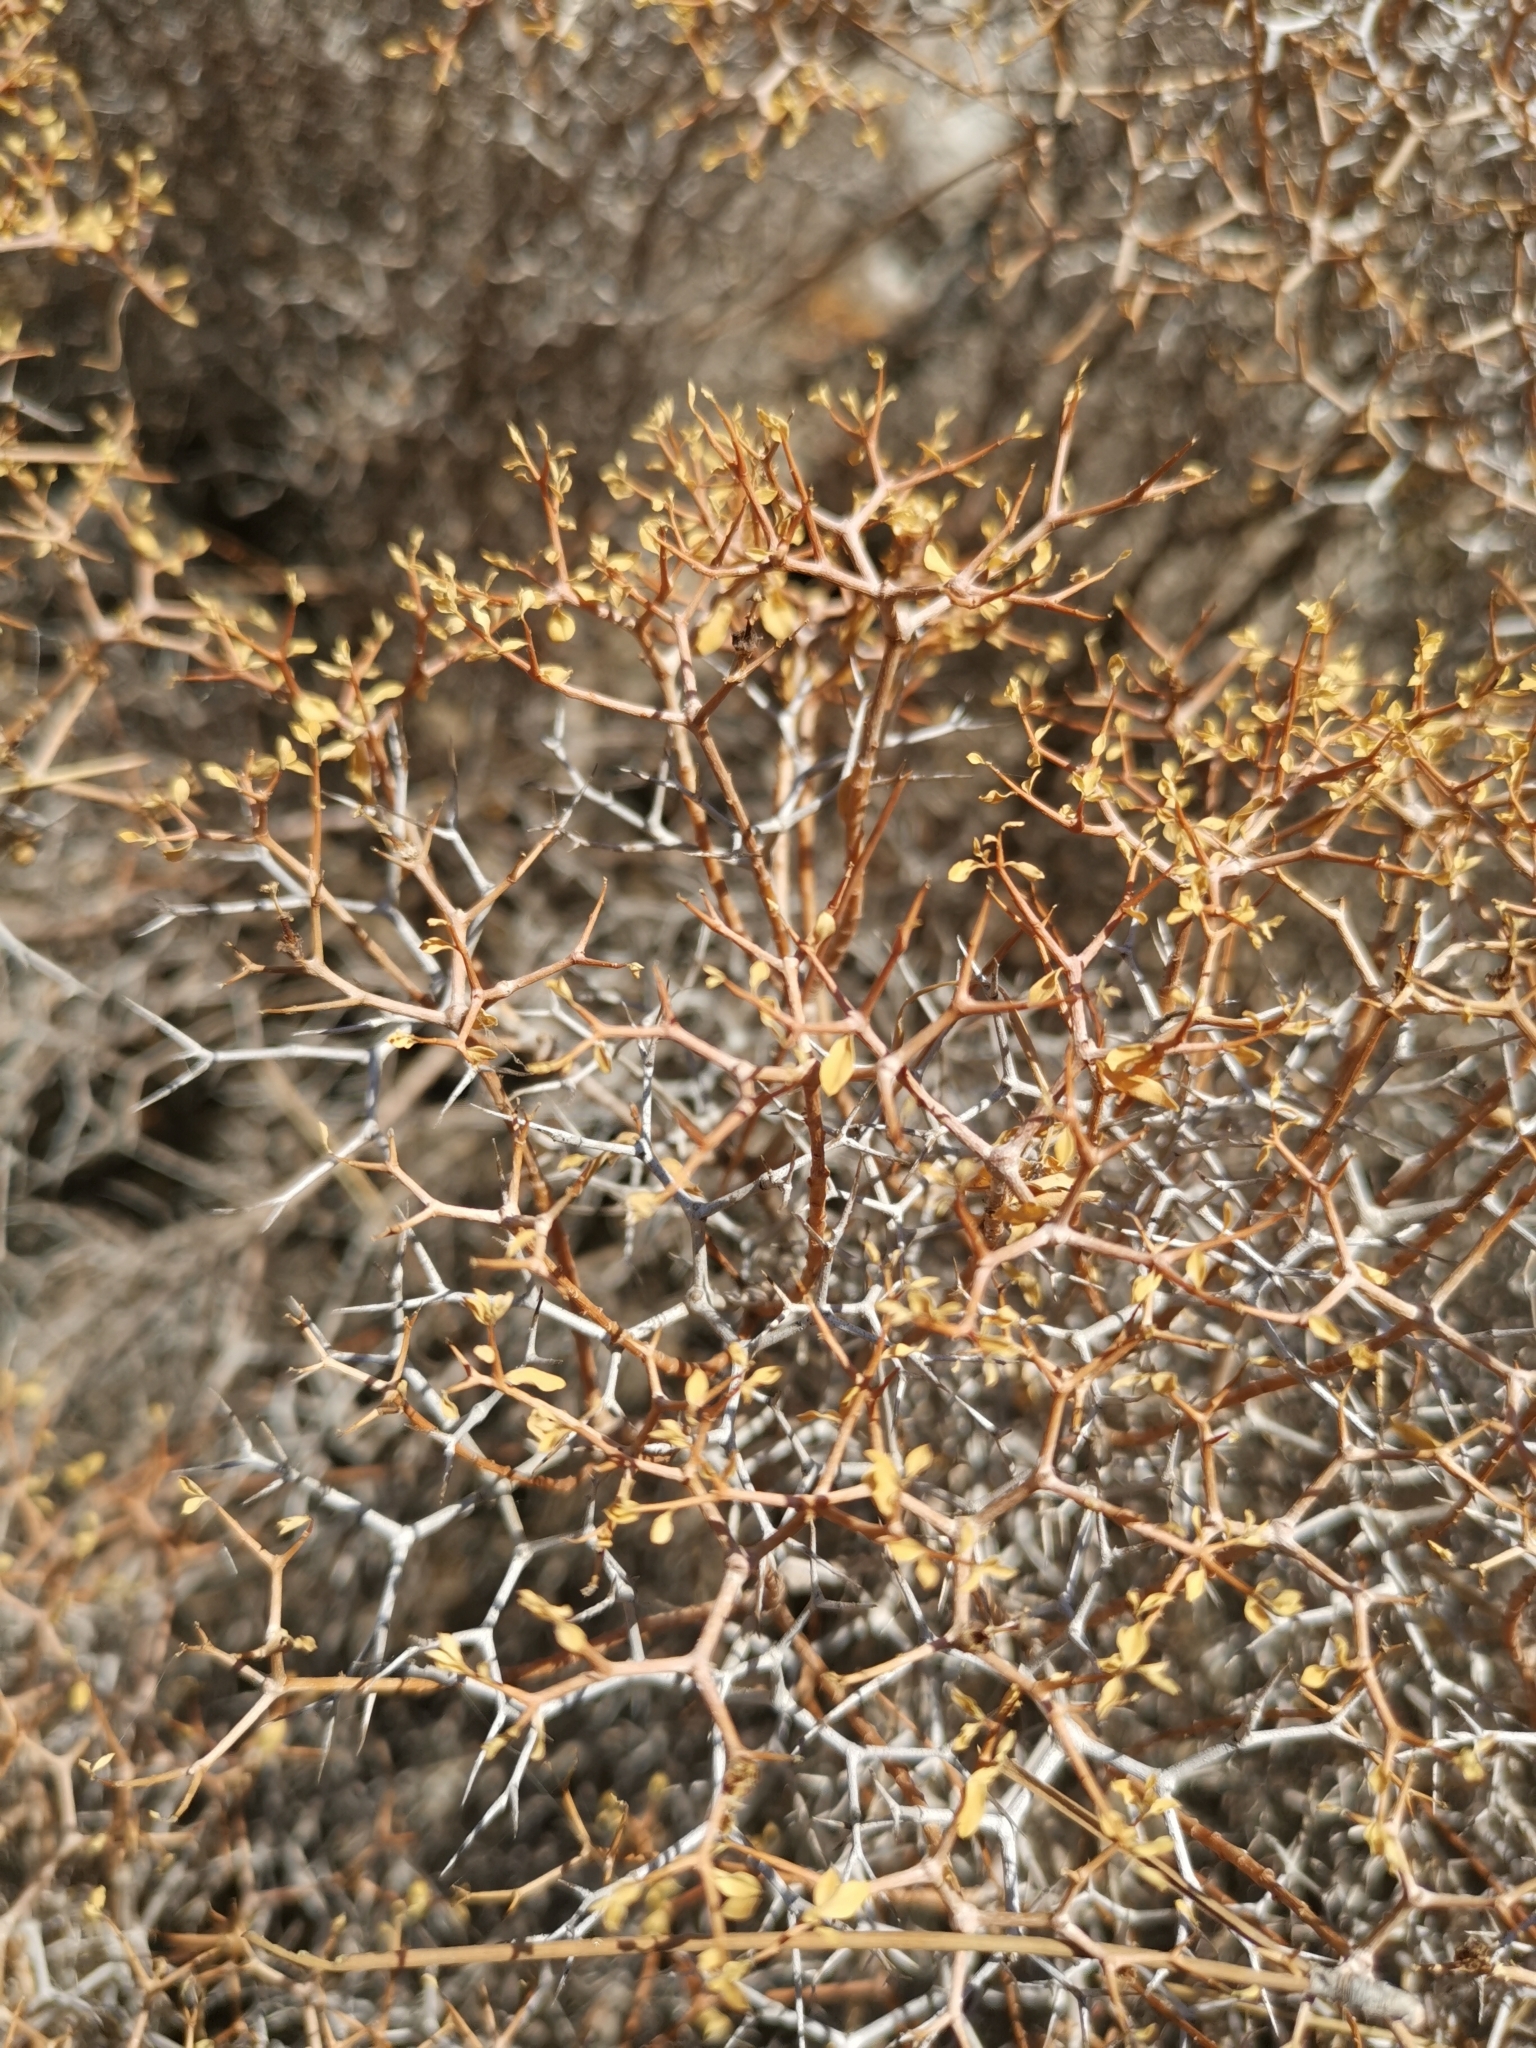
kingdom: Plantae
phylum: Tracheophyta
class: Magnoliopsida
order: Rosales
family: Rosaceae
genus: Sarcopoterium
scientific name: Sarcopoterium spinosum
